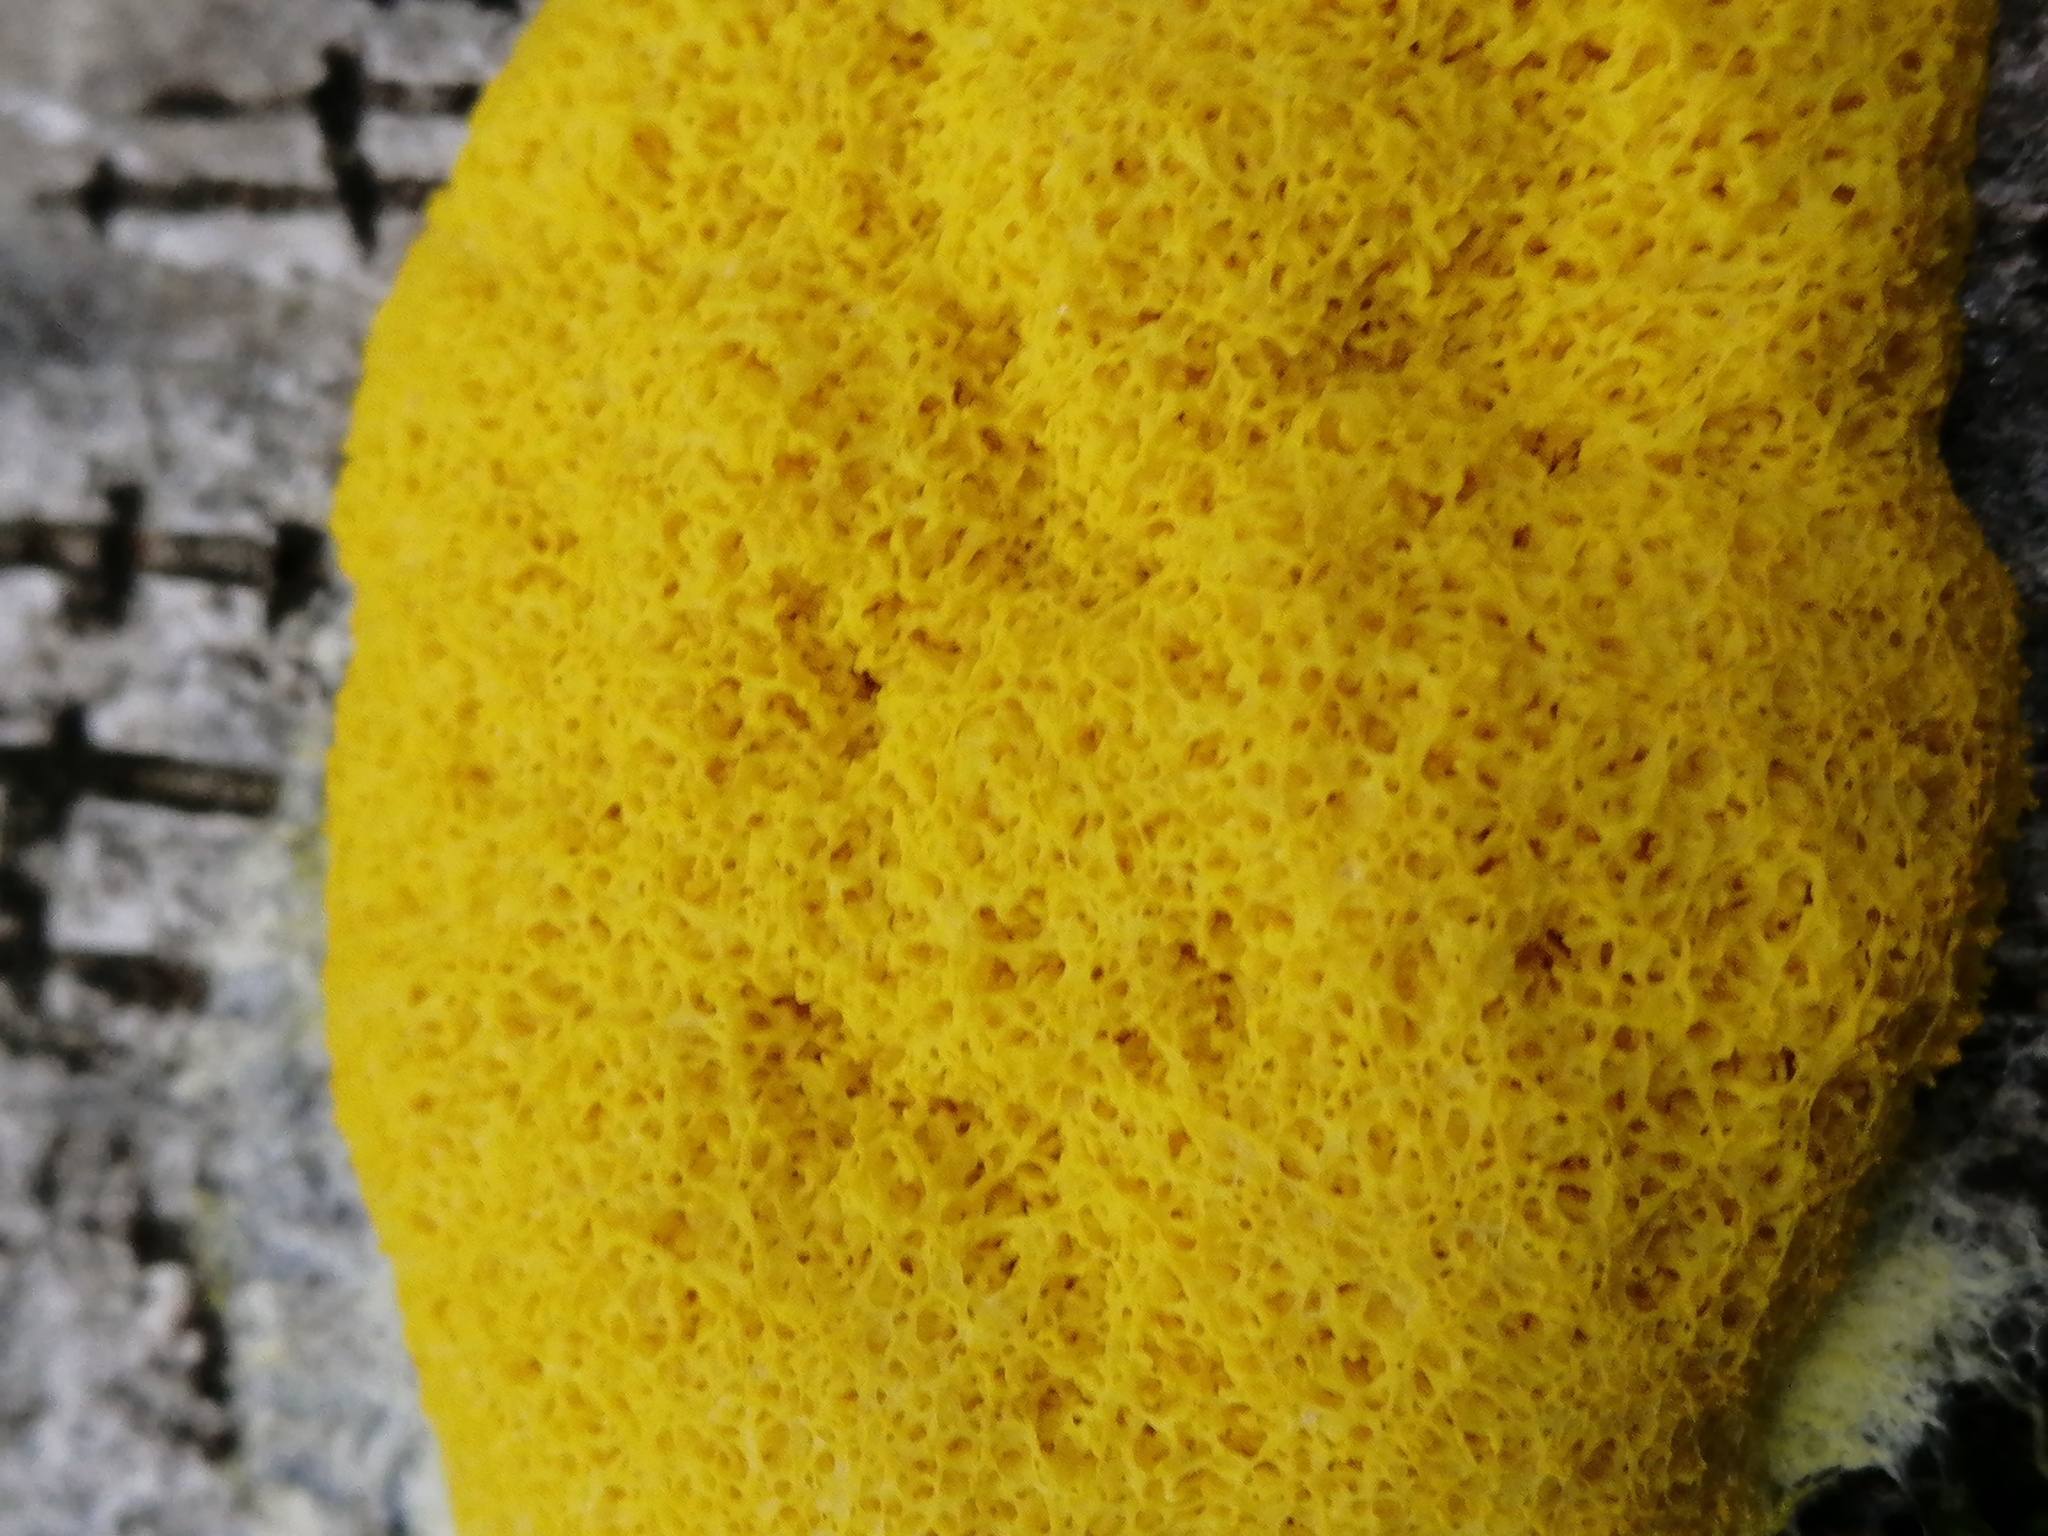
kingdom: Protozoa
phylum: Mycetozoa
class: Myxomycetes
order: Physarales
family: Physaraceae
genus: Fuligo
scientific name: Fuligo septica
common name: Dog vomit slime mold
